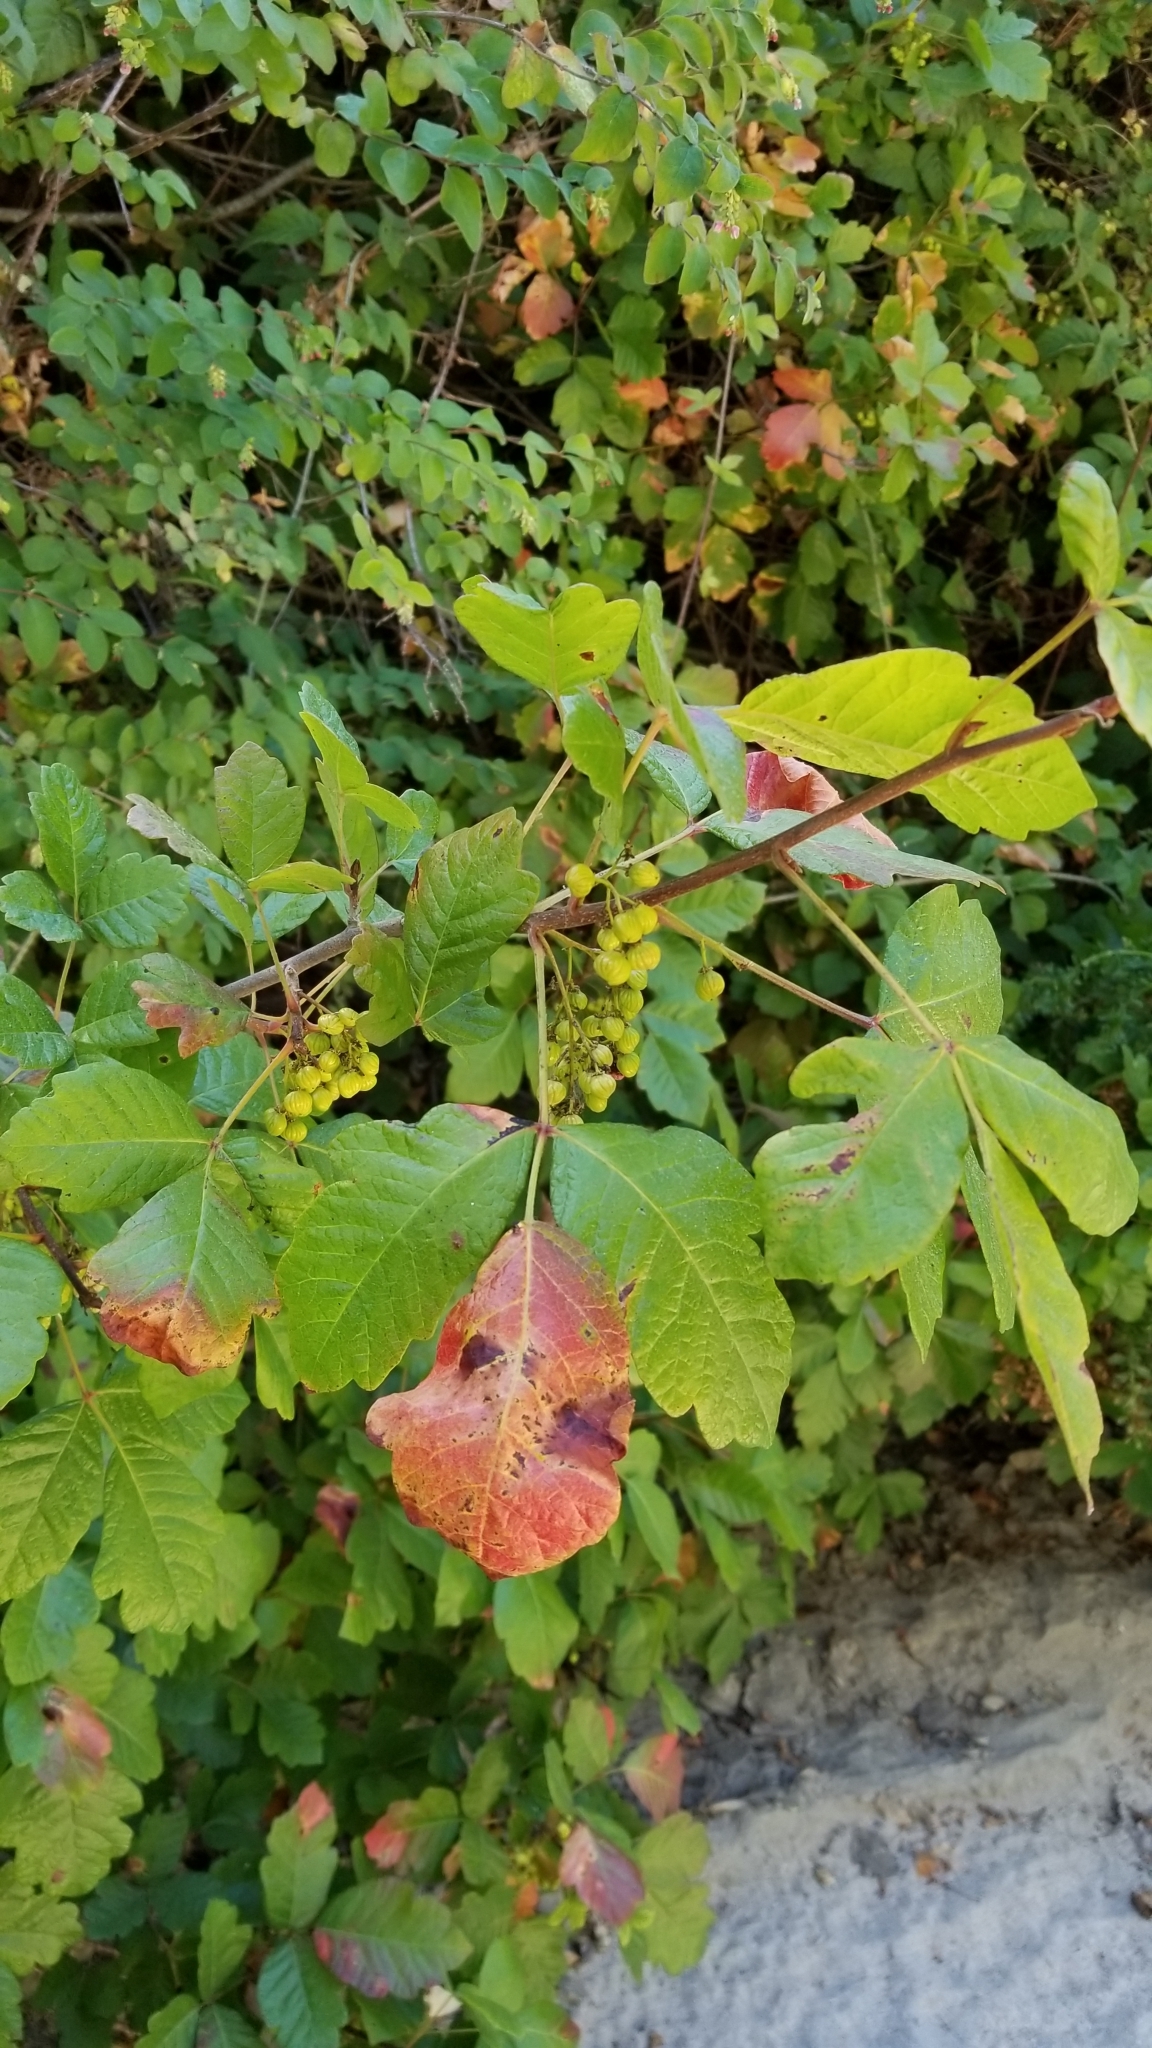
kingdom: Plantae
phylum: Tracheophyta
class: Magnoliopsida
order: Sapindales
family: Anacardiaceae
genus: Toxicodendron
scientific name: Toxicodendron diversilobum
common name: Pacific poison-oak
